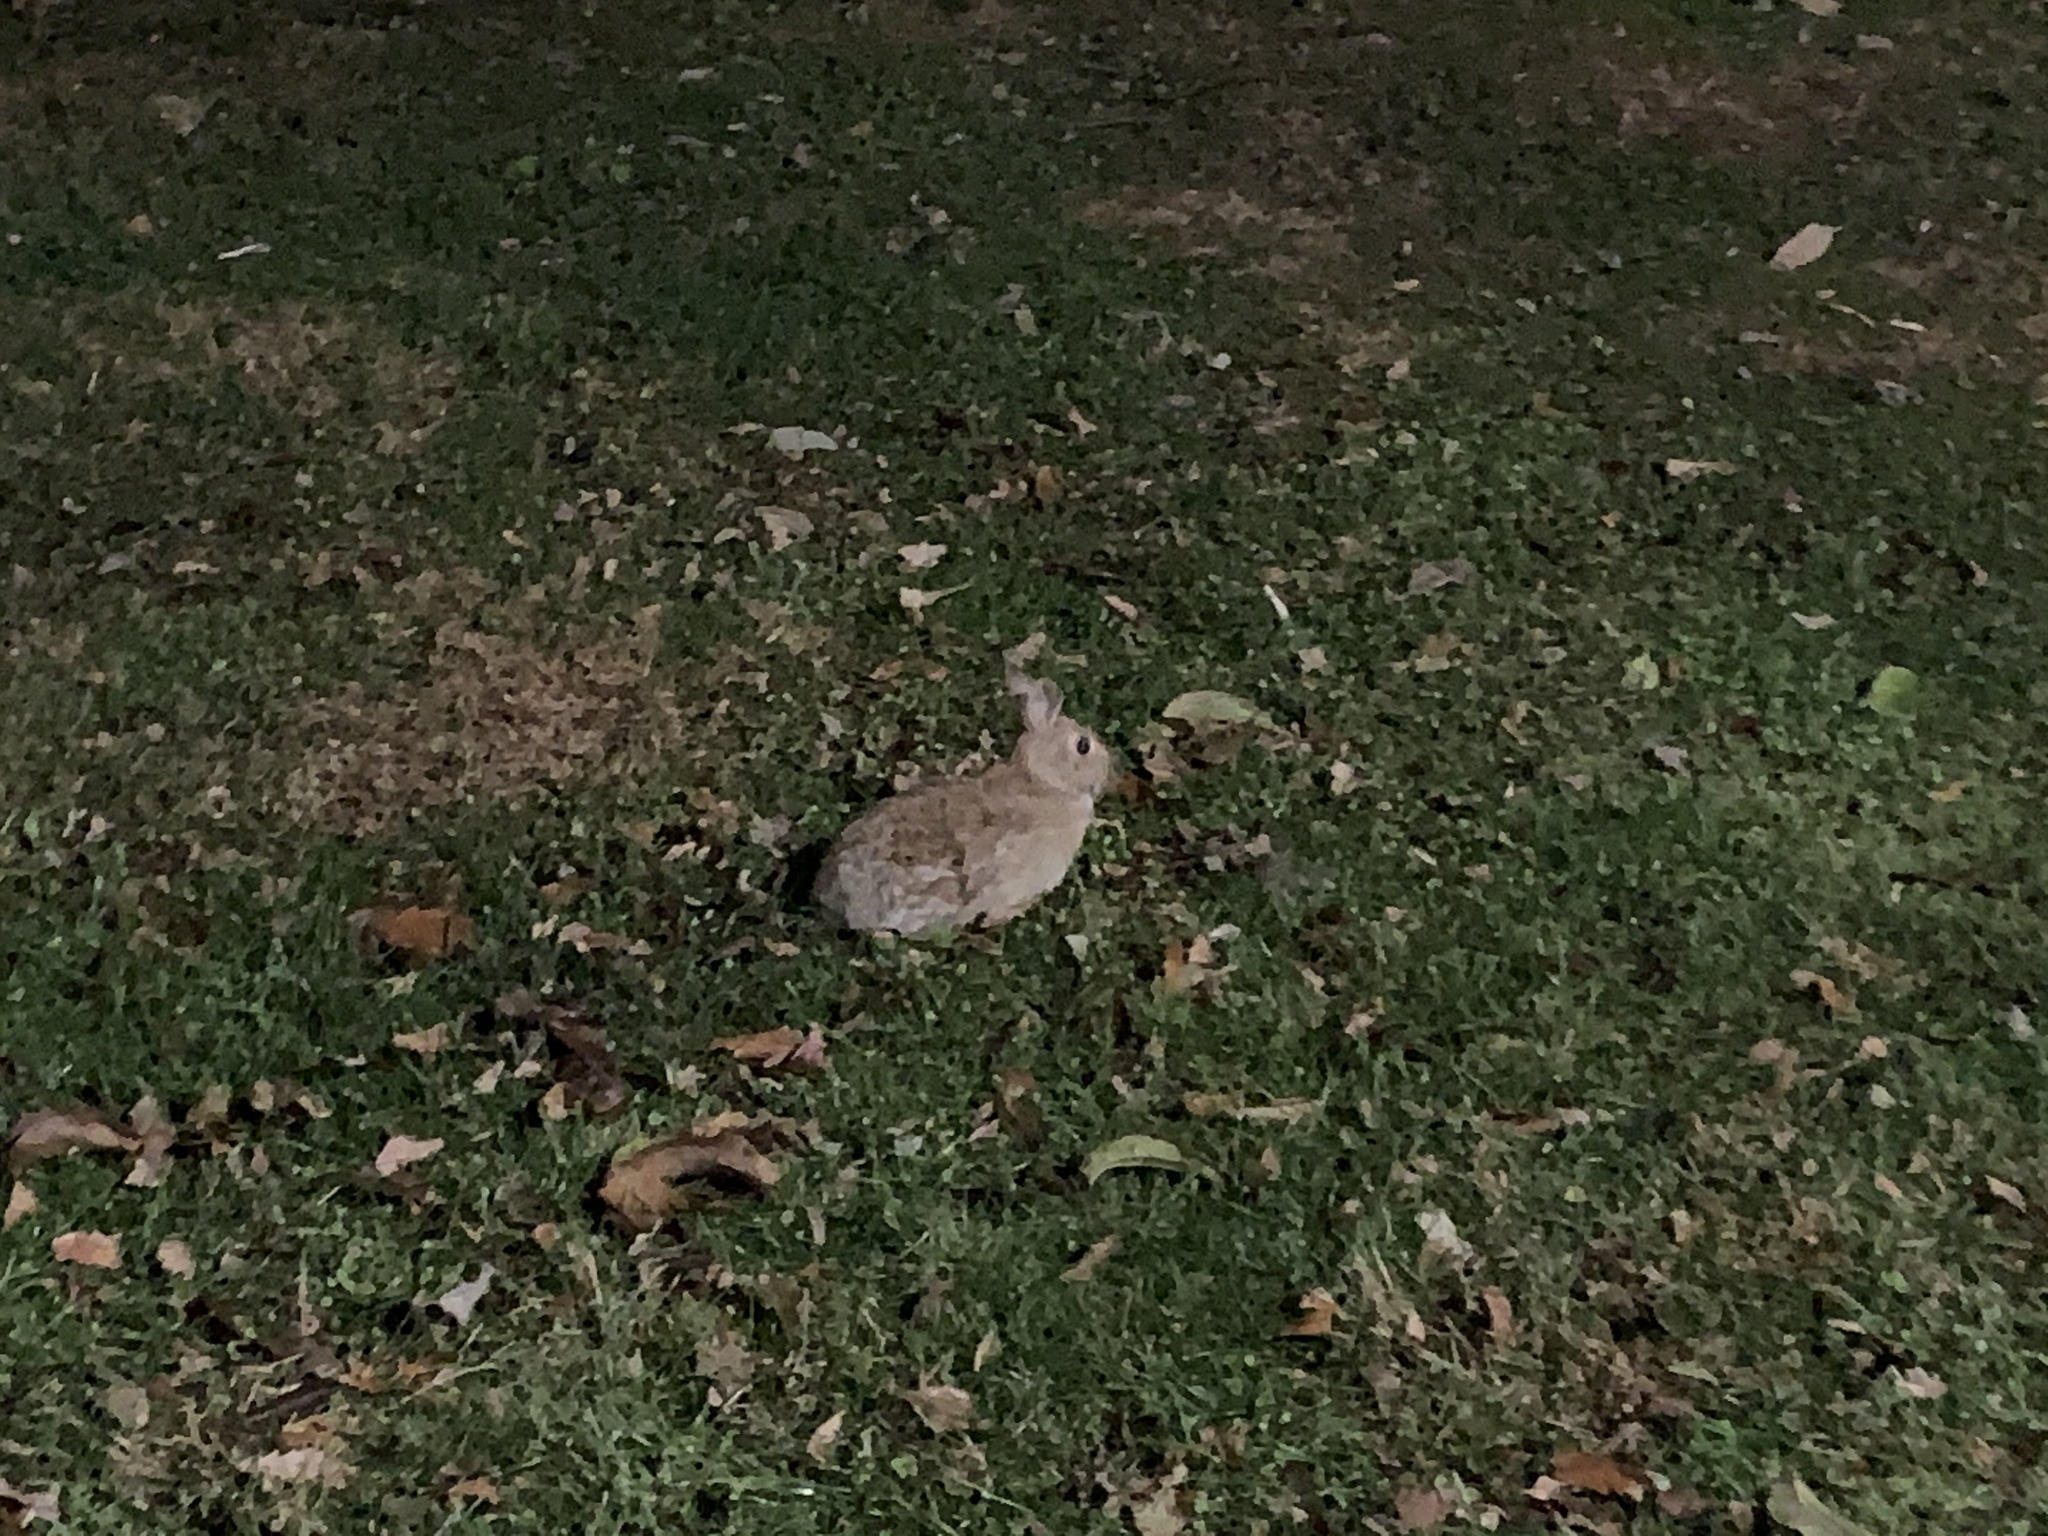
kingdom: Animalia
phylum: Chordata
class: Mammalia
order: Lagomorpha
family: Leporidae
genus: Sylvilagus
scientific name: Sylvilagus floridanus
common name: Eastern cottontail
